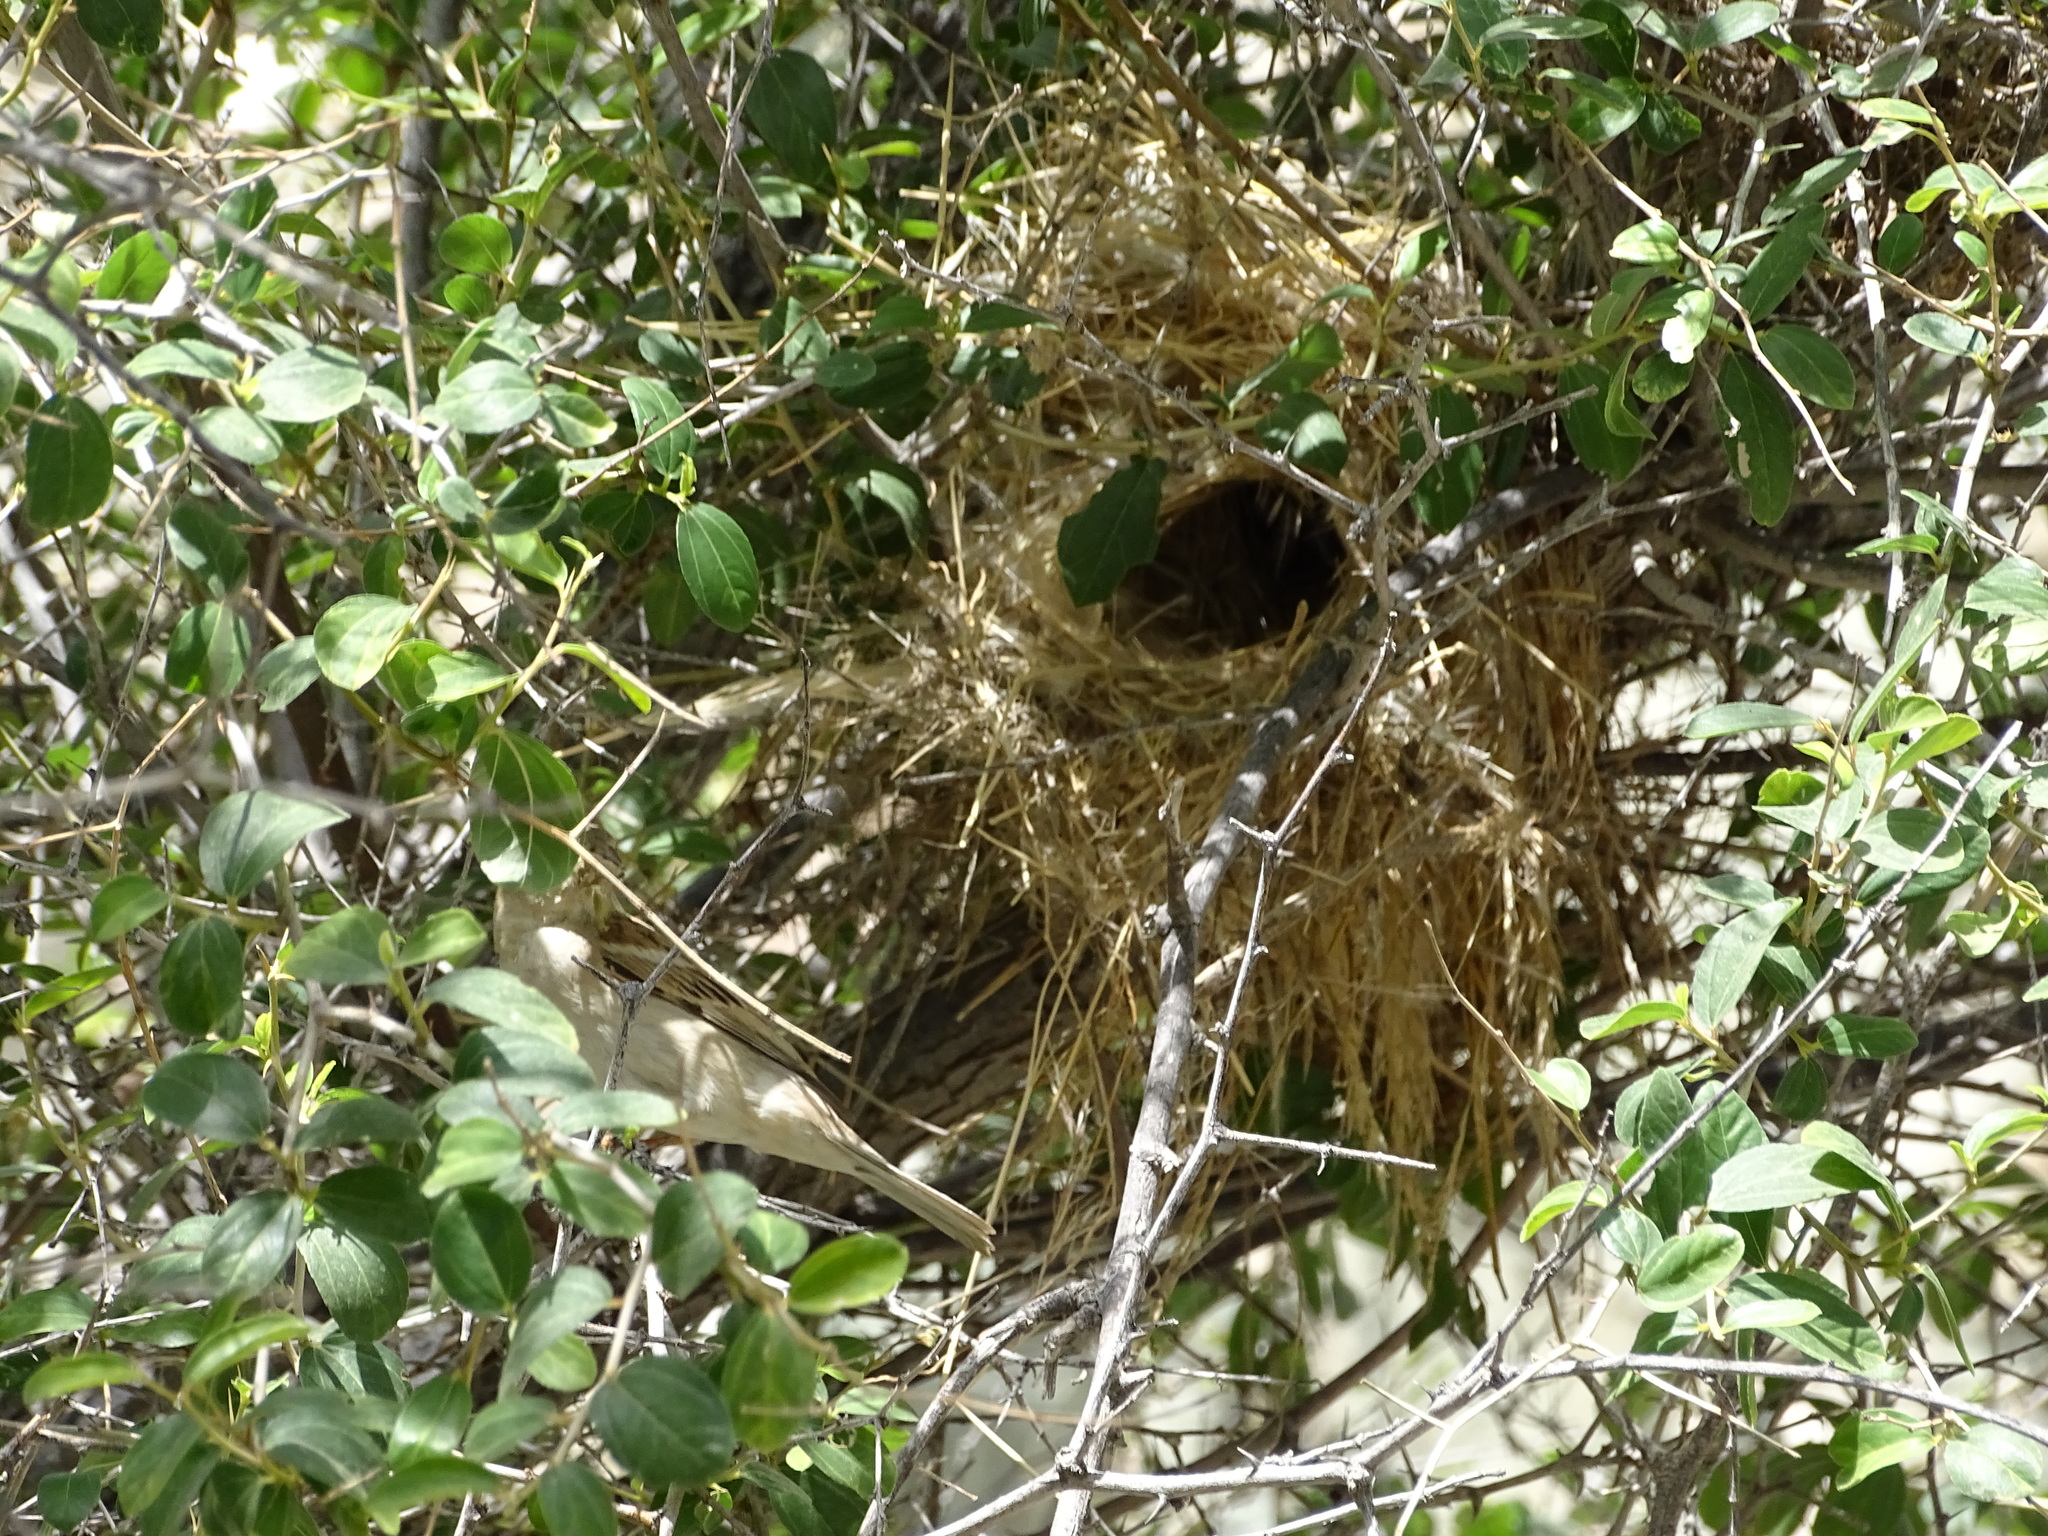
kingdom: Animalia
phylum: Chordata
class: Aves
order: Passeriformes
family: Passeridae
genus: Passer
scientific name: Passer domesticus
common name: House sparrow
